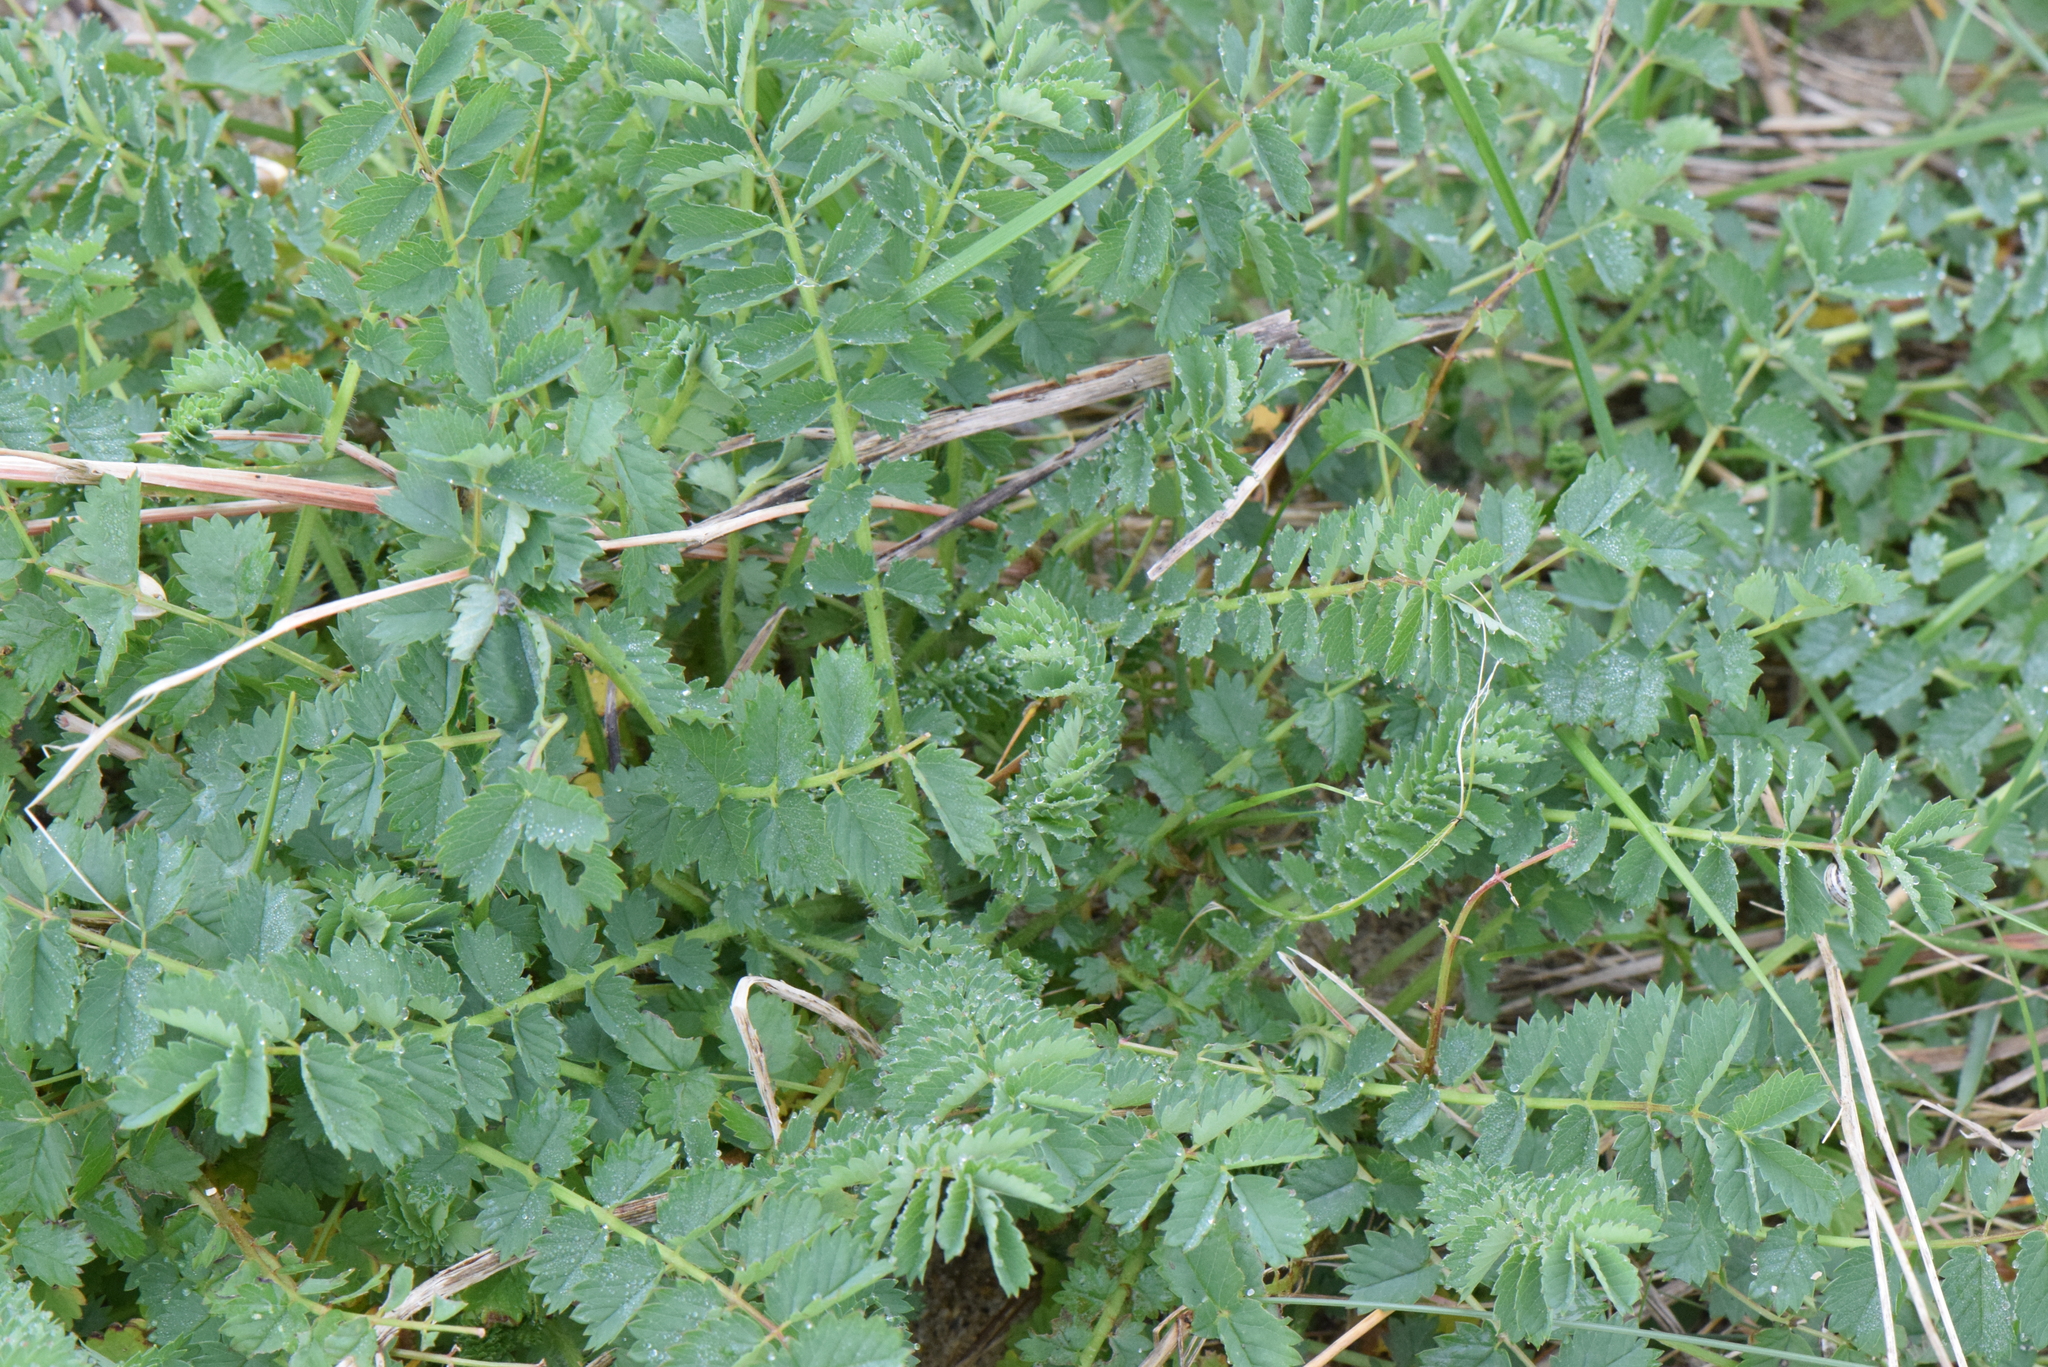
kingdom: Plantae
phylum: Tracheophyta
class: Magnoliopsida
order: Rosales
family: Rosaceae
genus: Poterium
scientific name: Poterium sanguisorba
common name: Salad burnet
